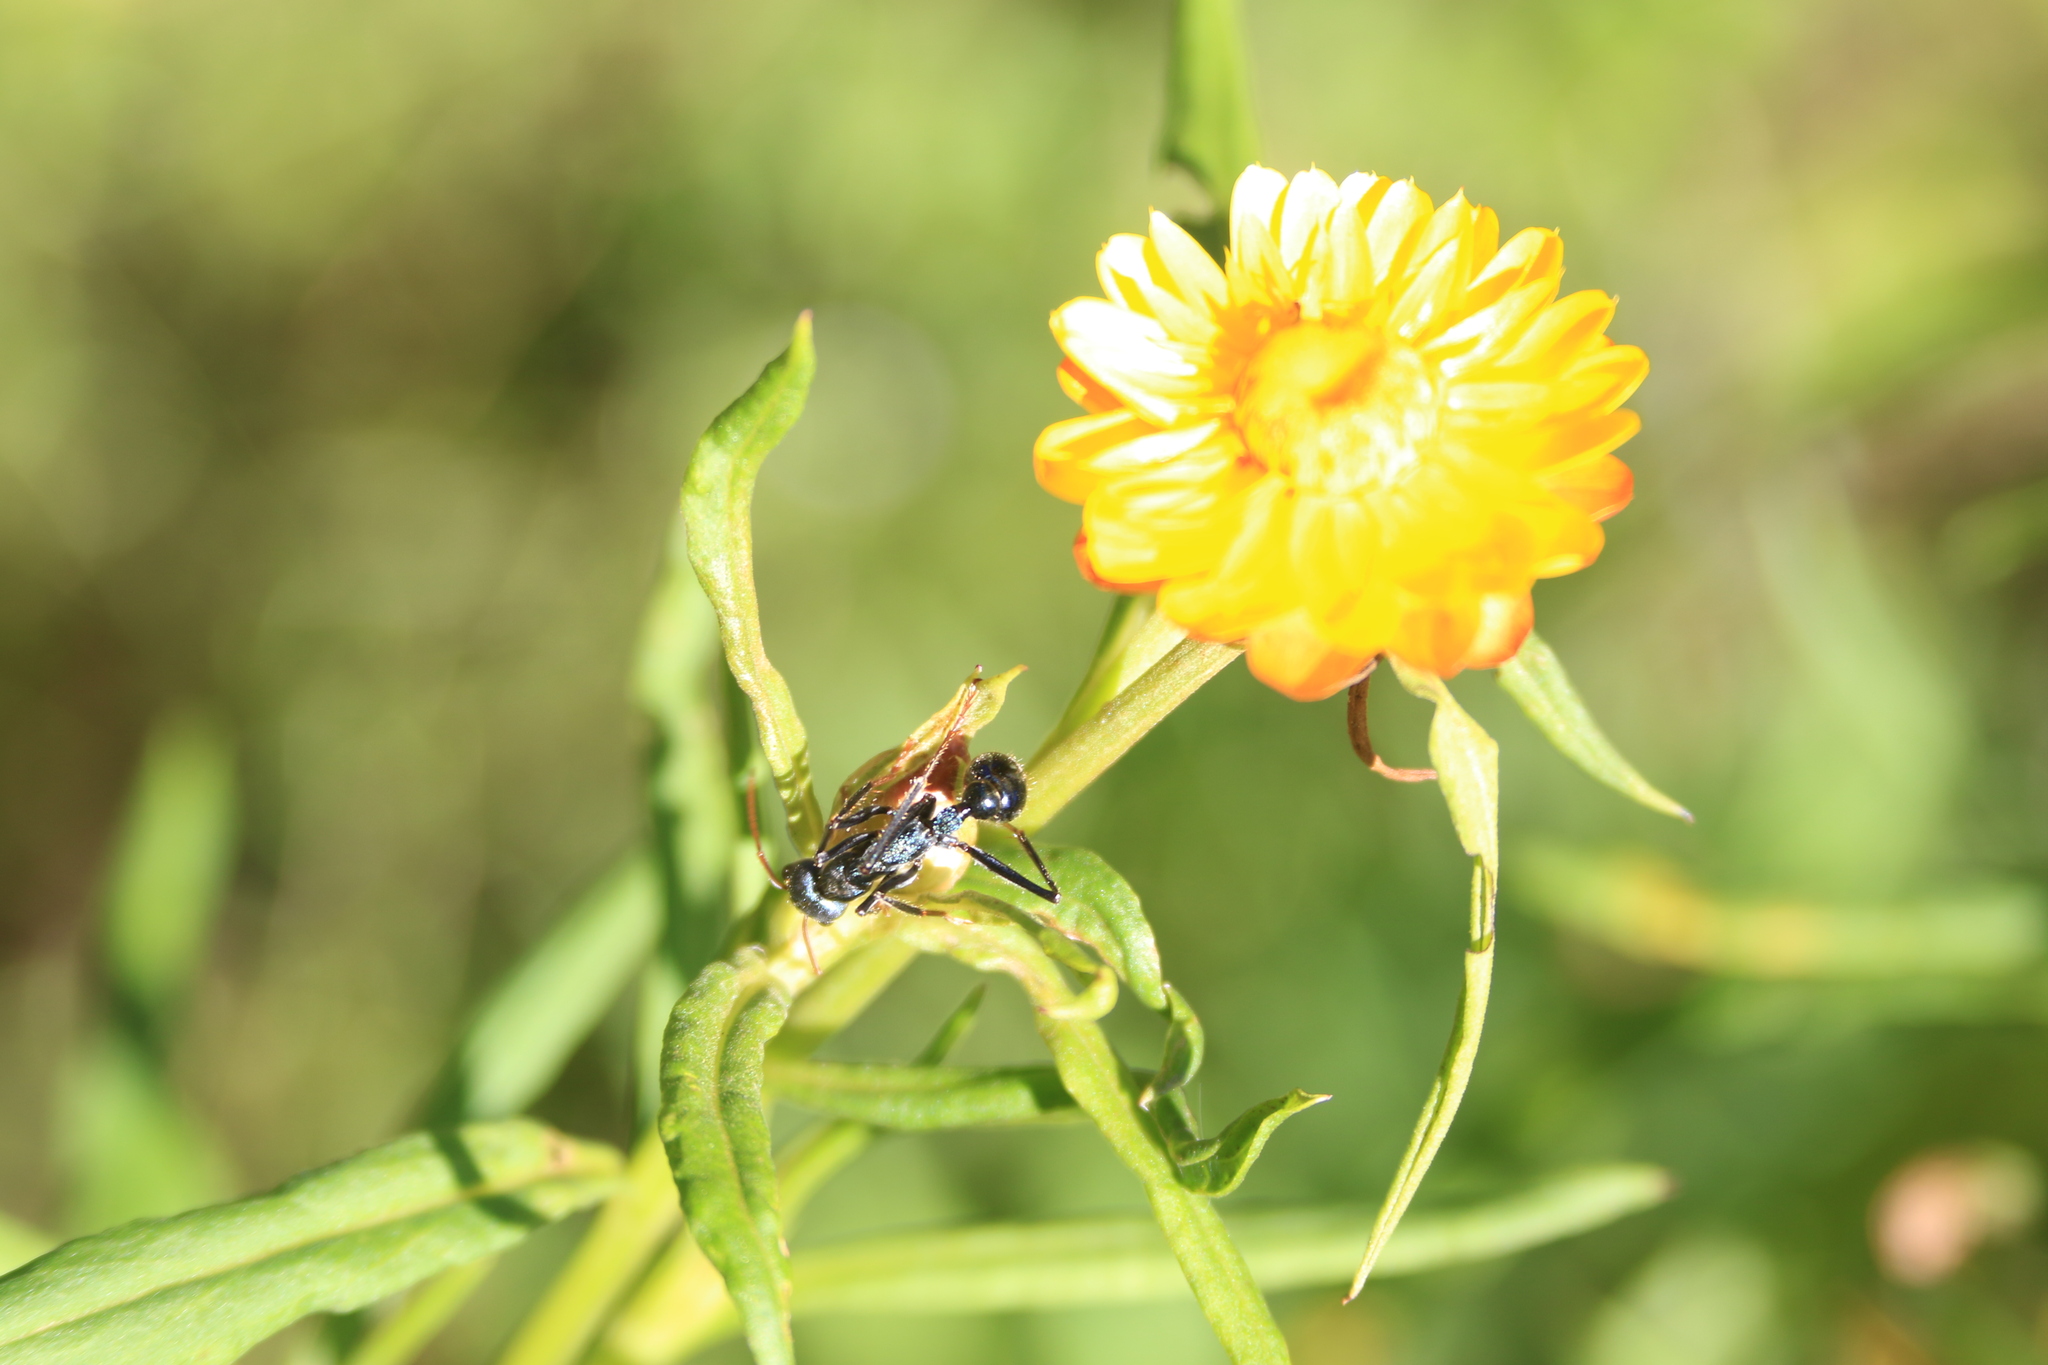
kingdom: Animalia
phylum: Arthropoda
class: Insecta
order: Hymenoptera
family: Formicidae
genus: Myrmecia
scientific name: Myrmecia tarsata
